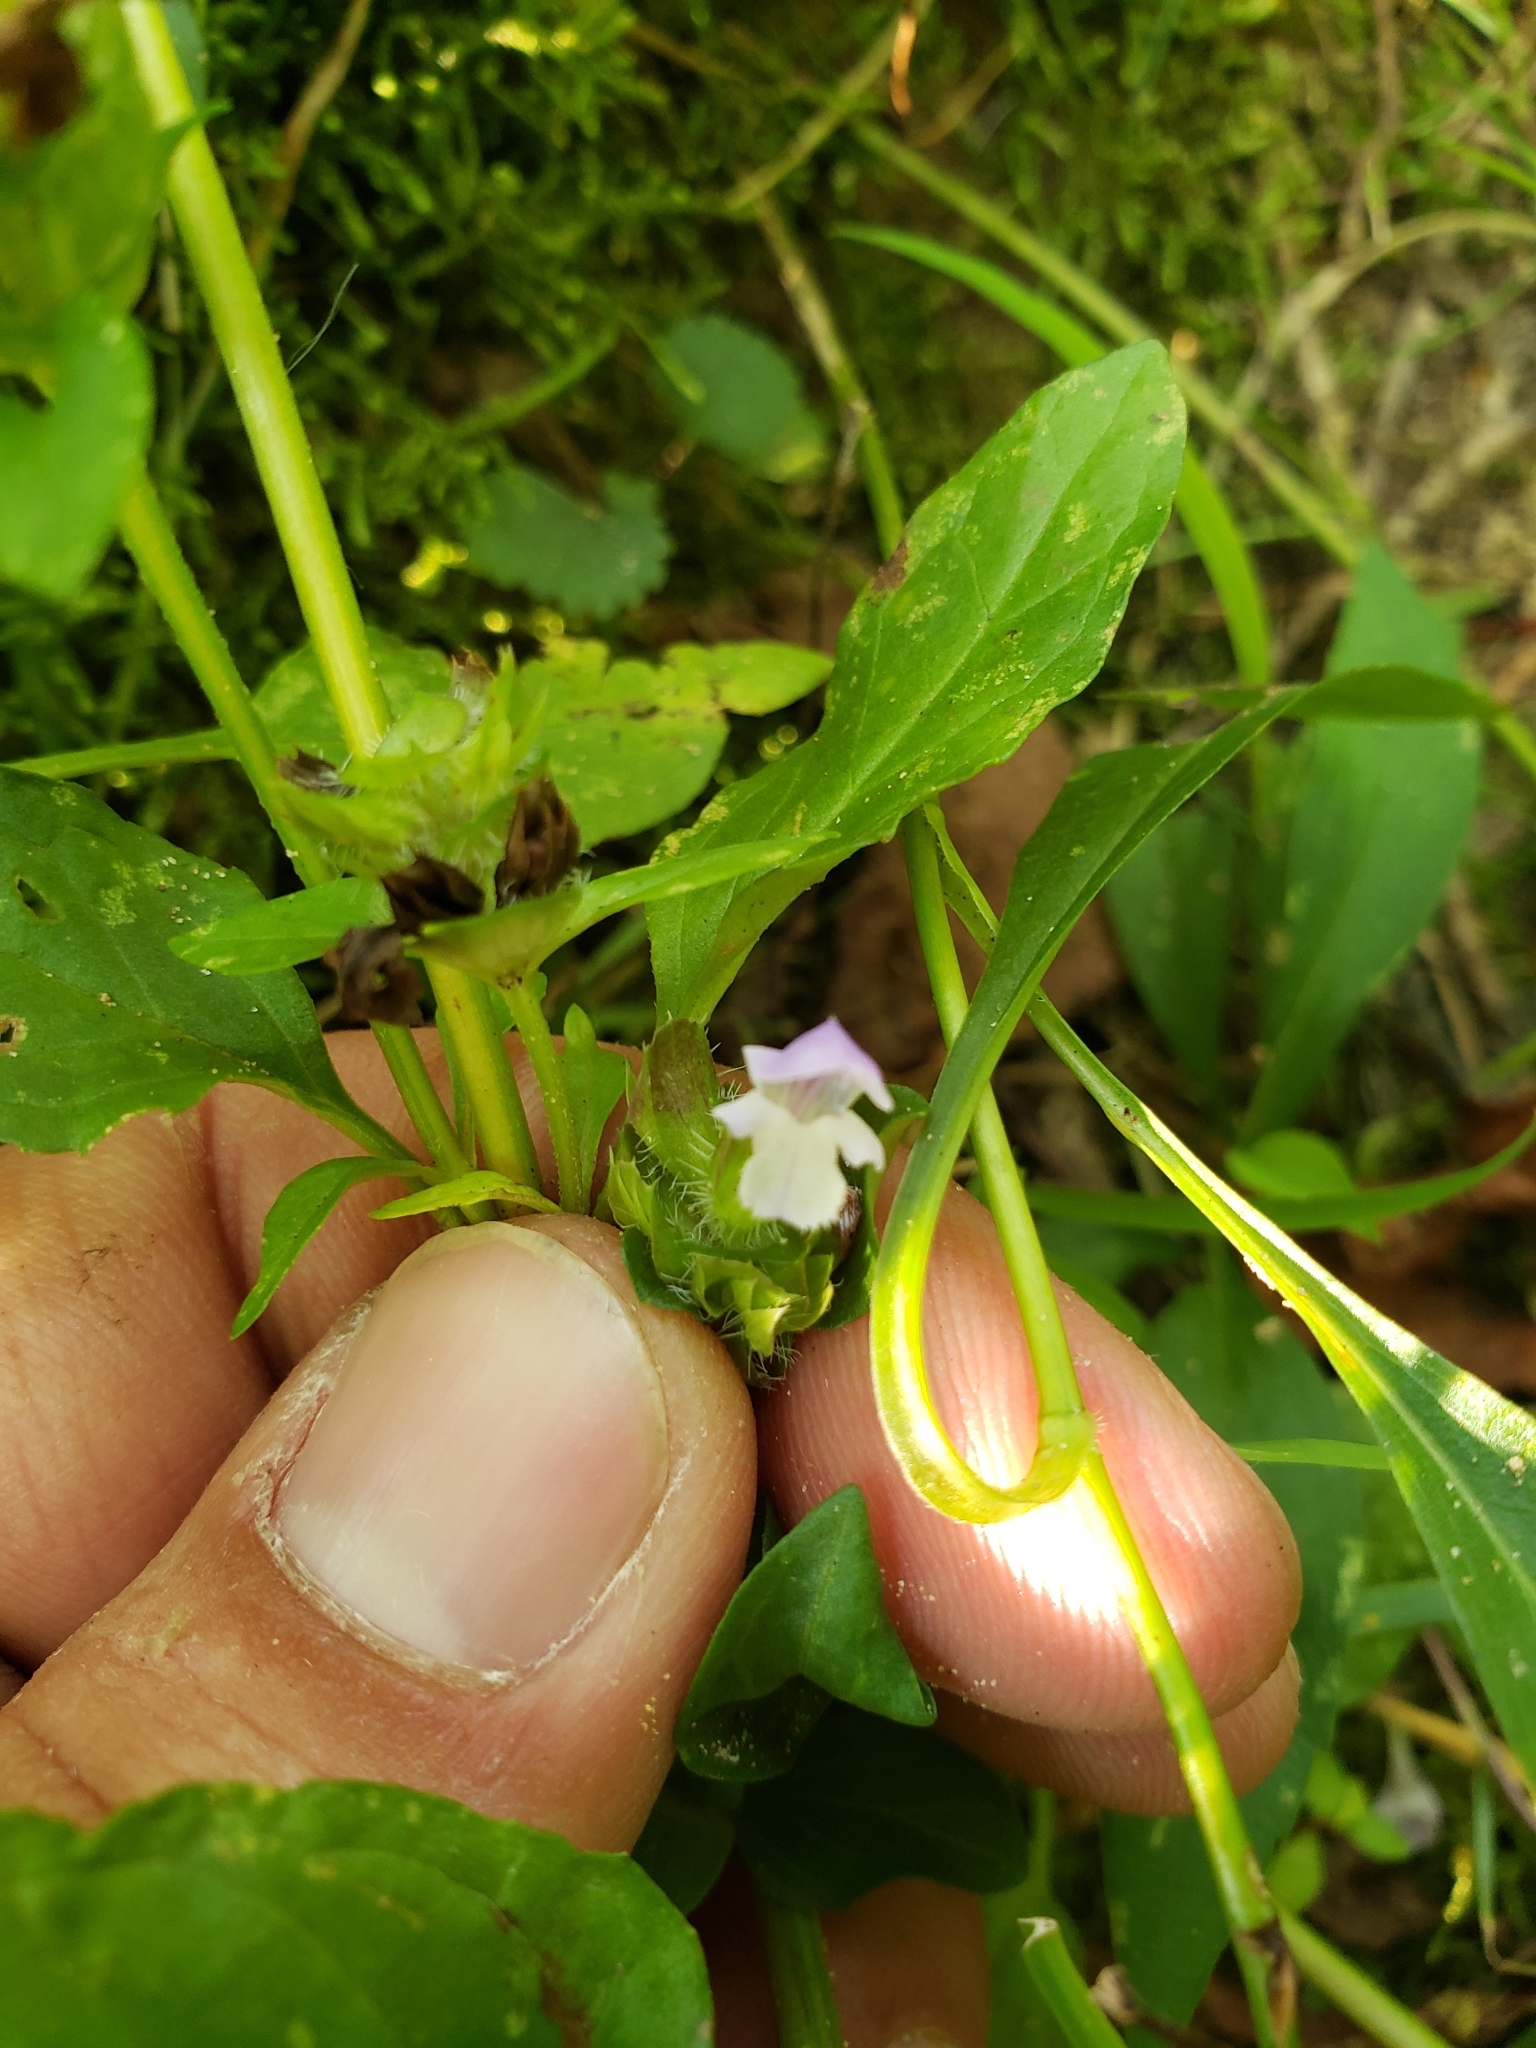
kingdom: Plantae
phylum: Tracheophyta
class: Magnoliopsida
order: Lamiales
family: Lamiaceae
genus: Prunella
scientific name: Prunella vulgaris
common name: Heal-all
